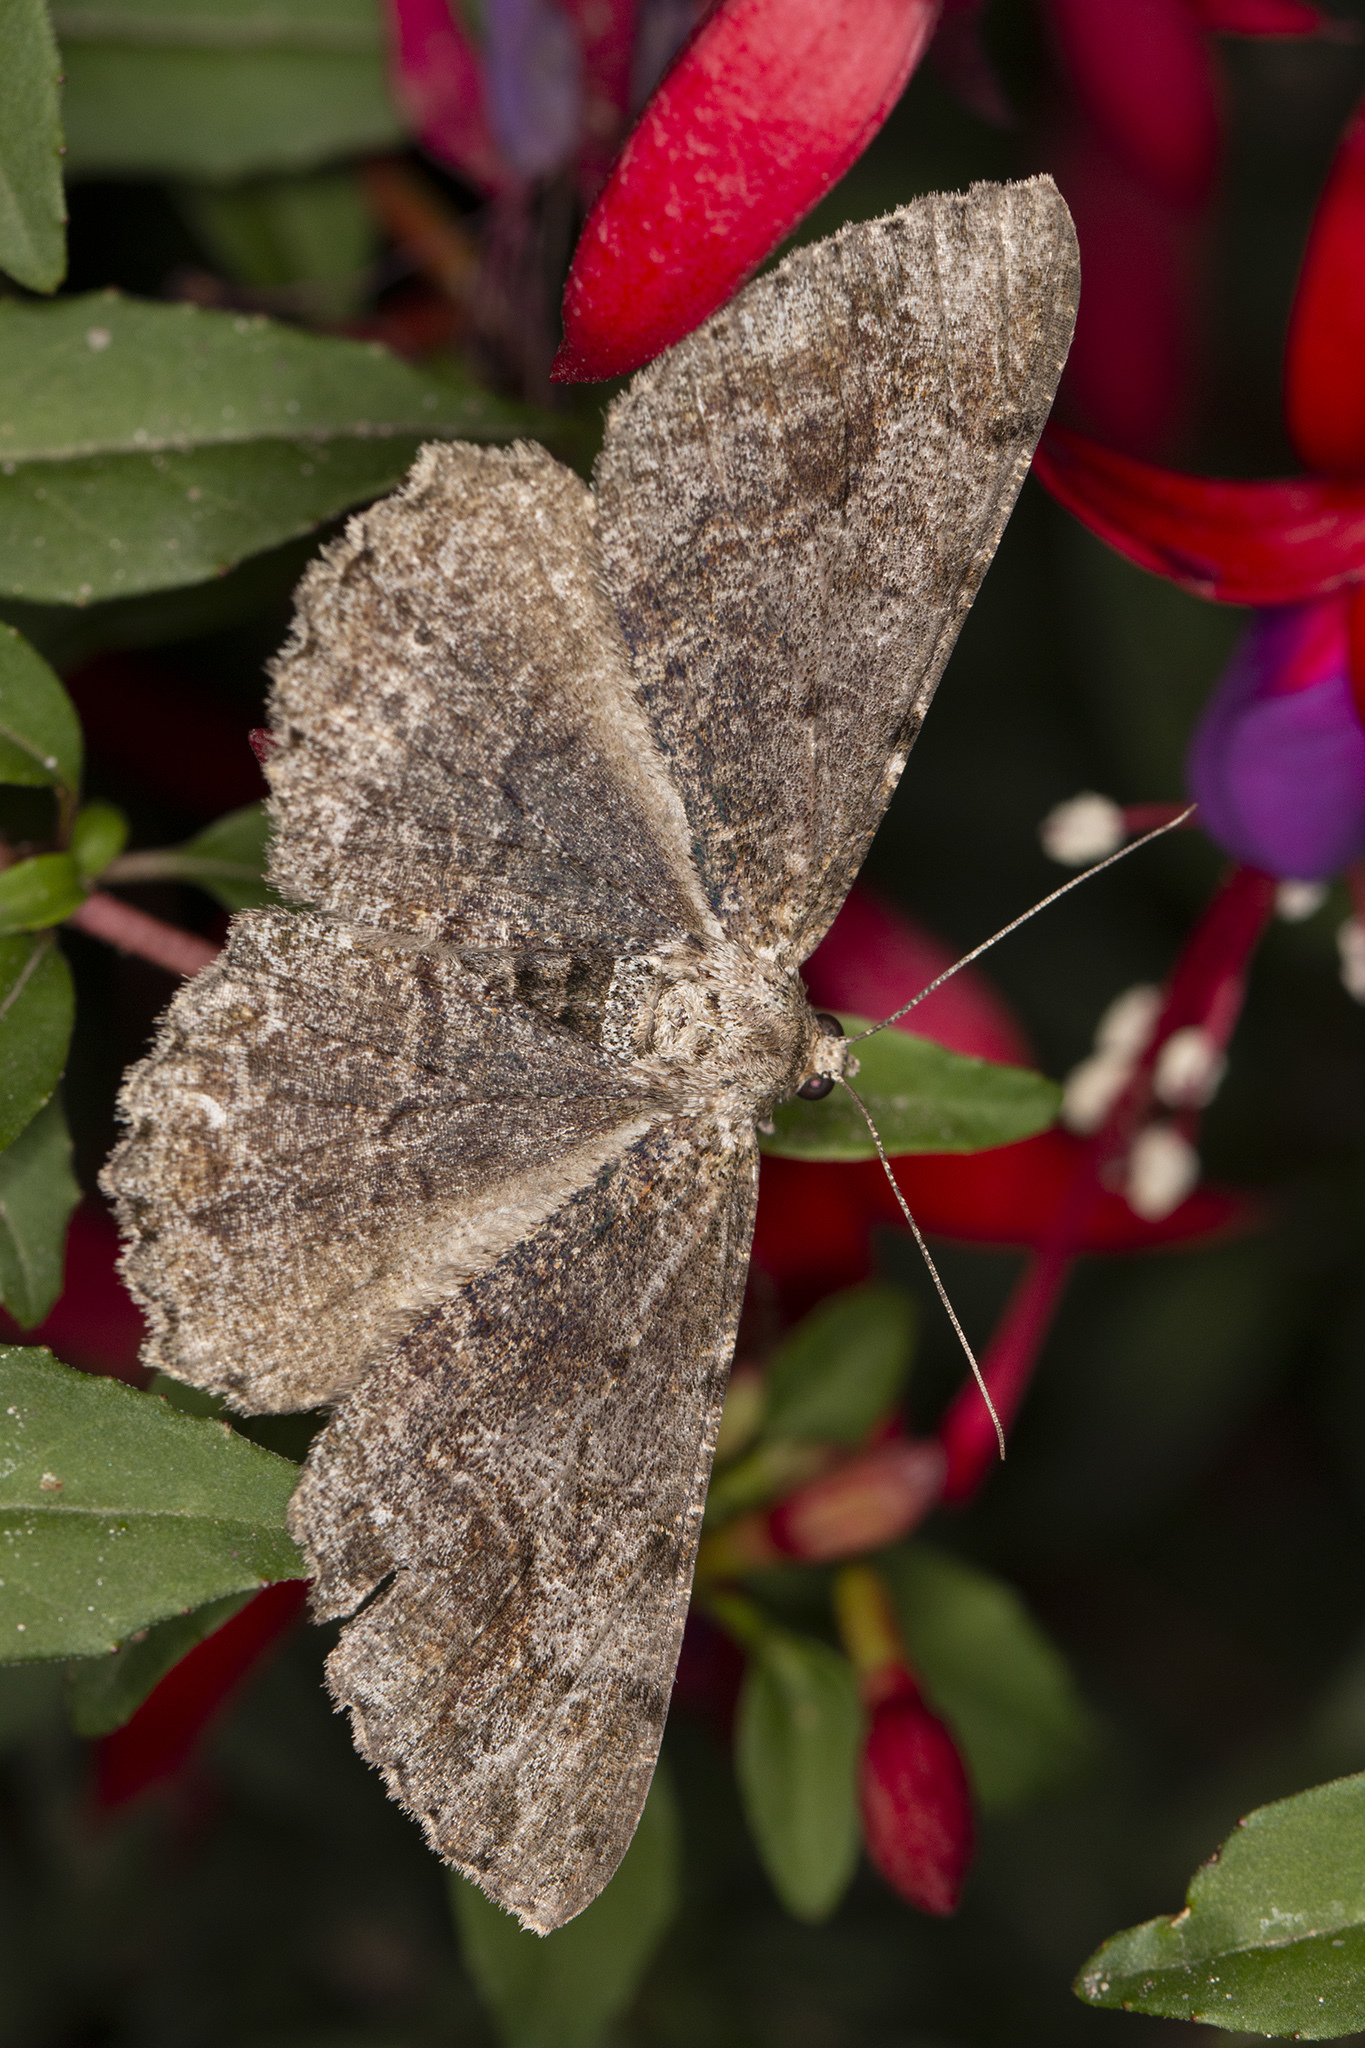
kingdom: Animalia
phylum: Arthropoda
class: Insecta
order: Lepidoptera
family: Geometridae
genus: Alcis
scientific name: Alcis repandata
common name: Mottled beauty
